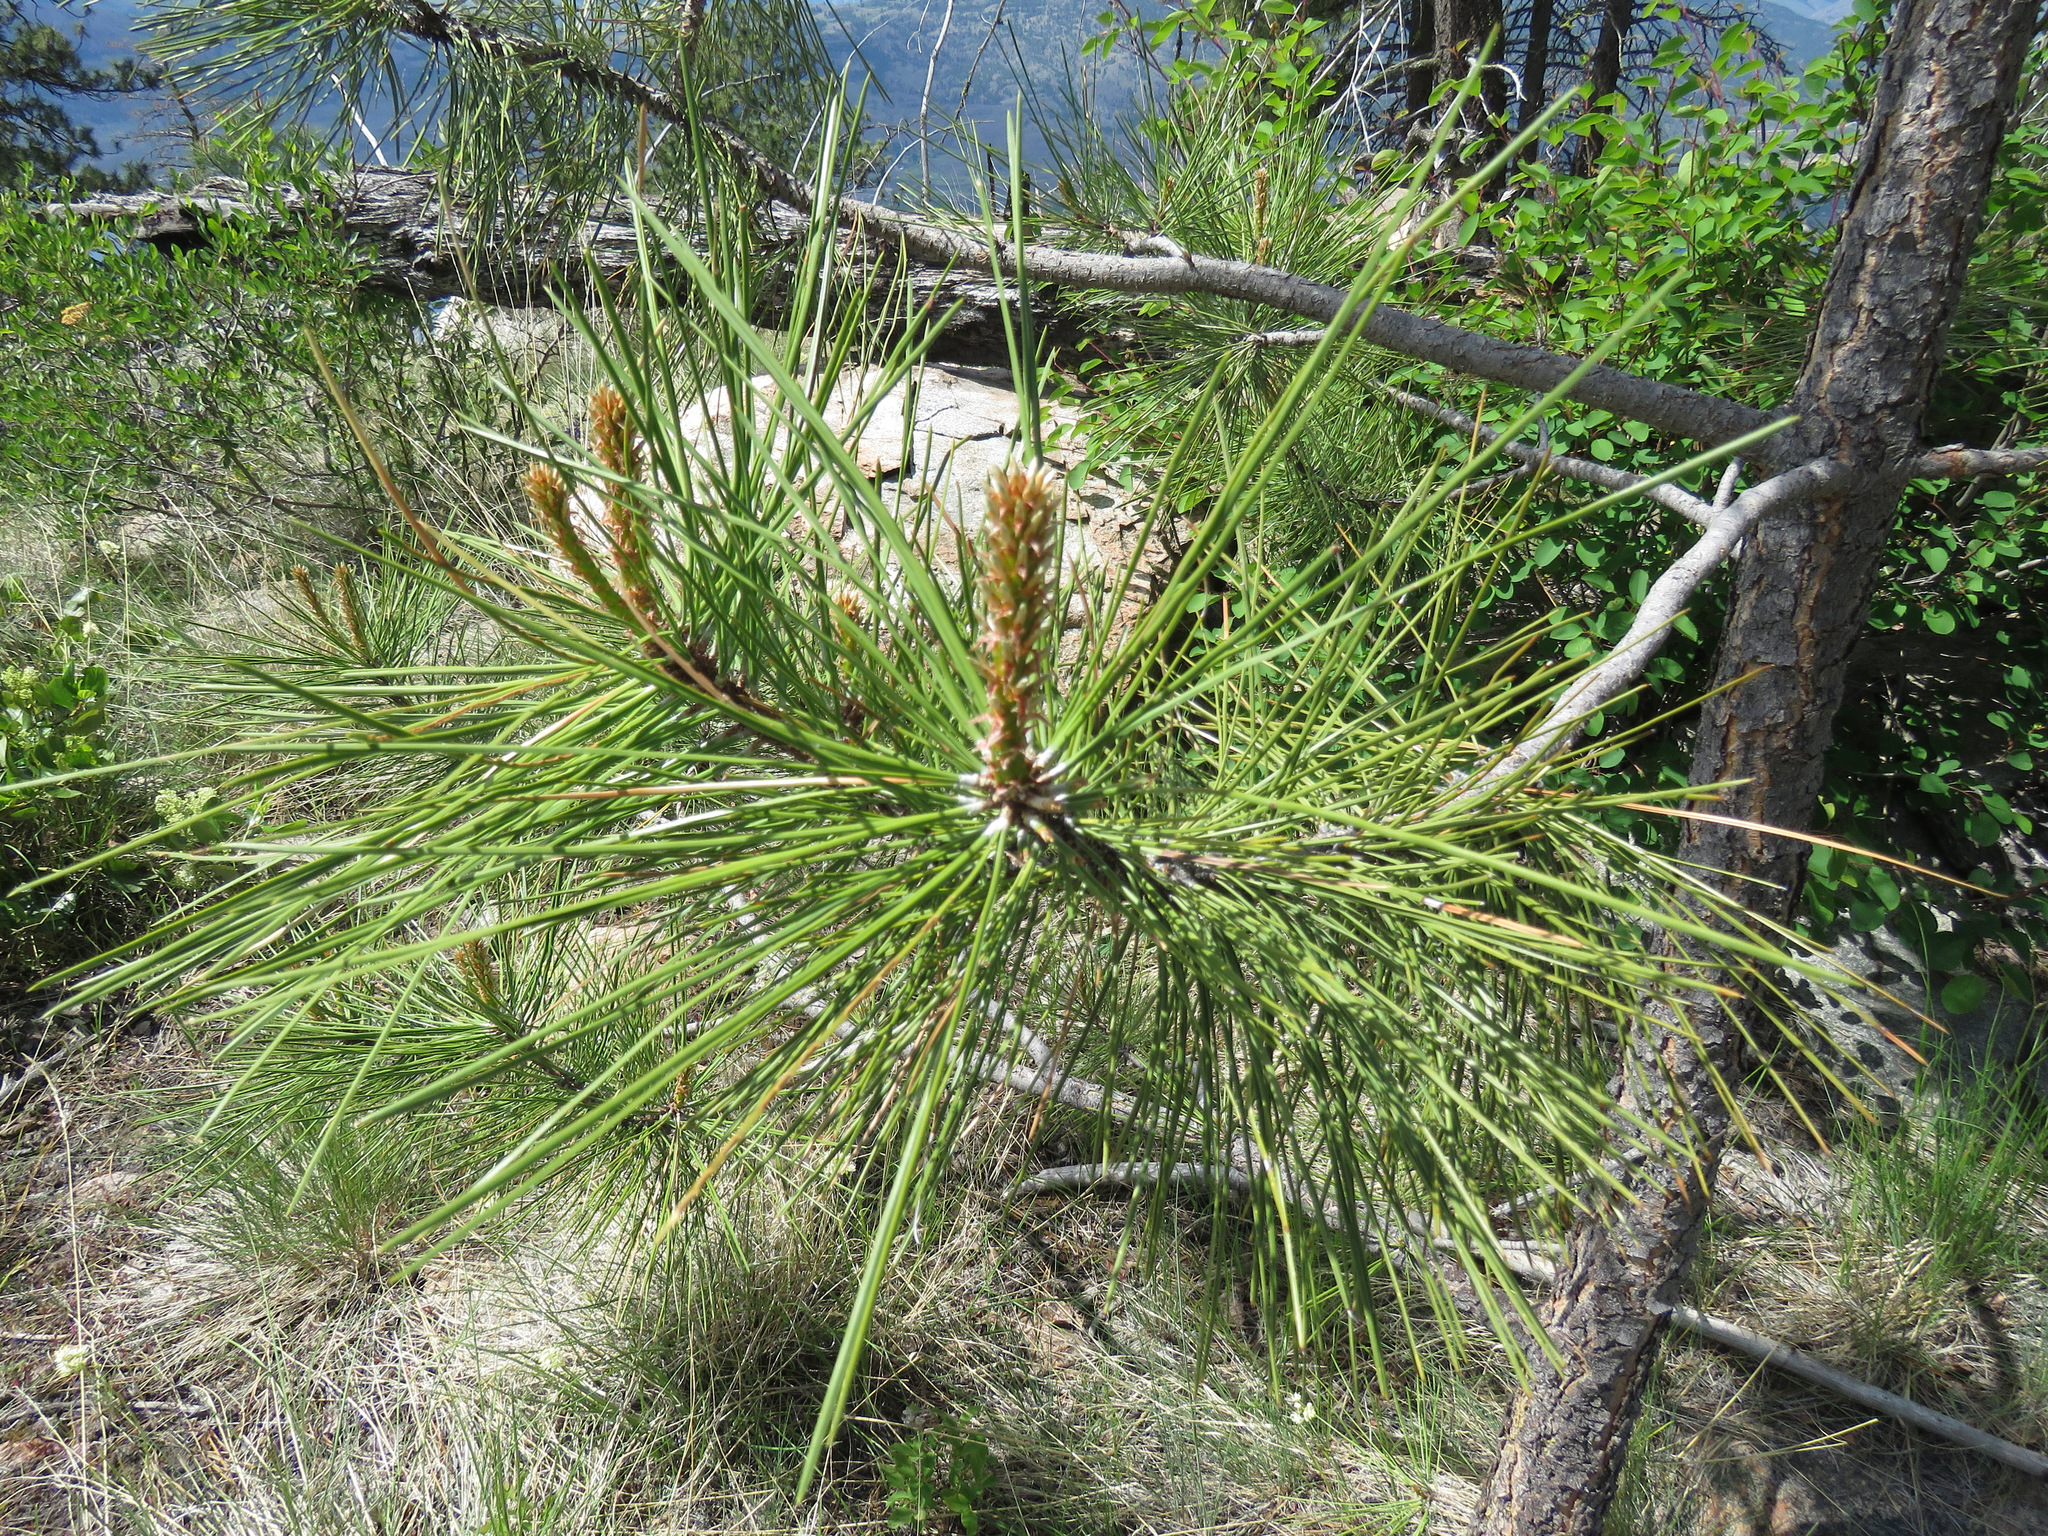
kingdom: Plantae
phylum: Tracheophyta
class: Pinopsida
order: Pinales
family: Pinaceae
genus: Pinus
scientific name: Pinus ponderosa
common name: Western yellow-pine
